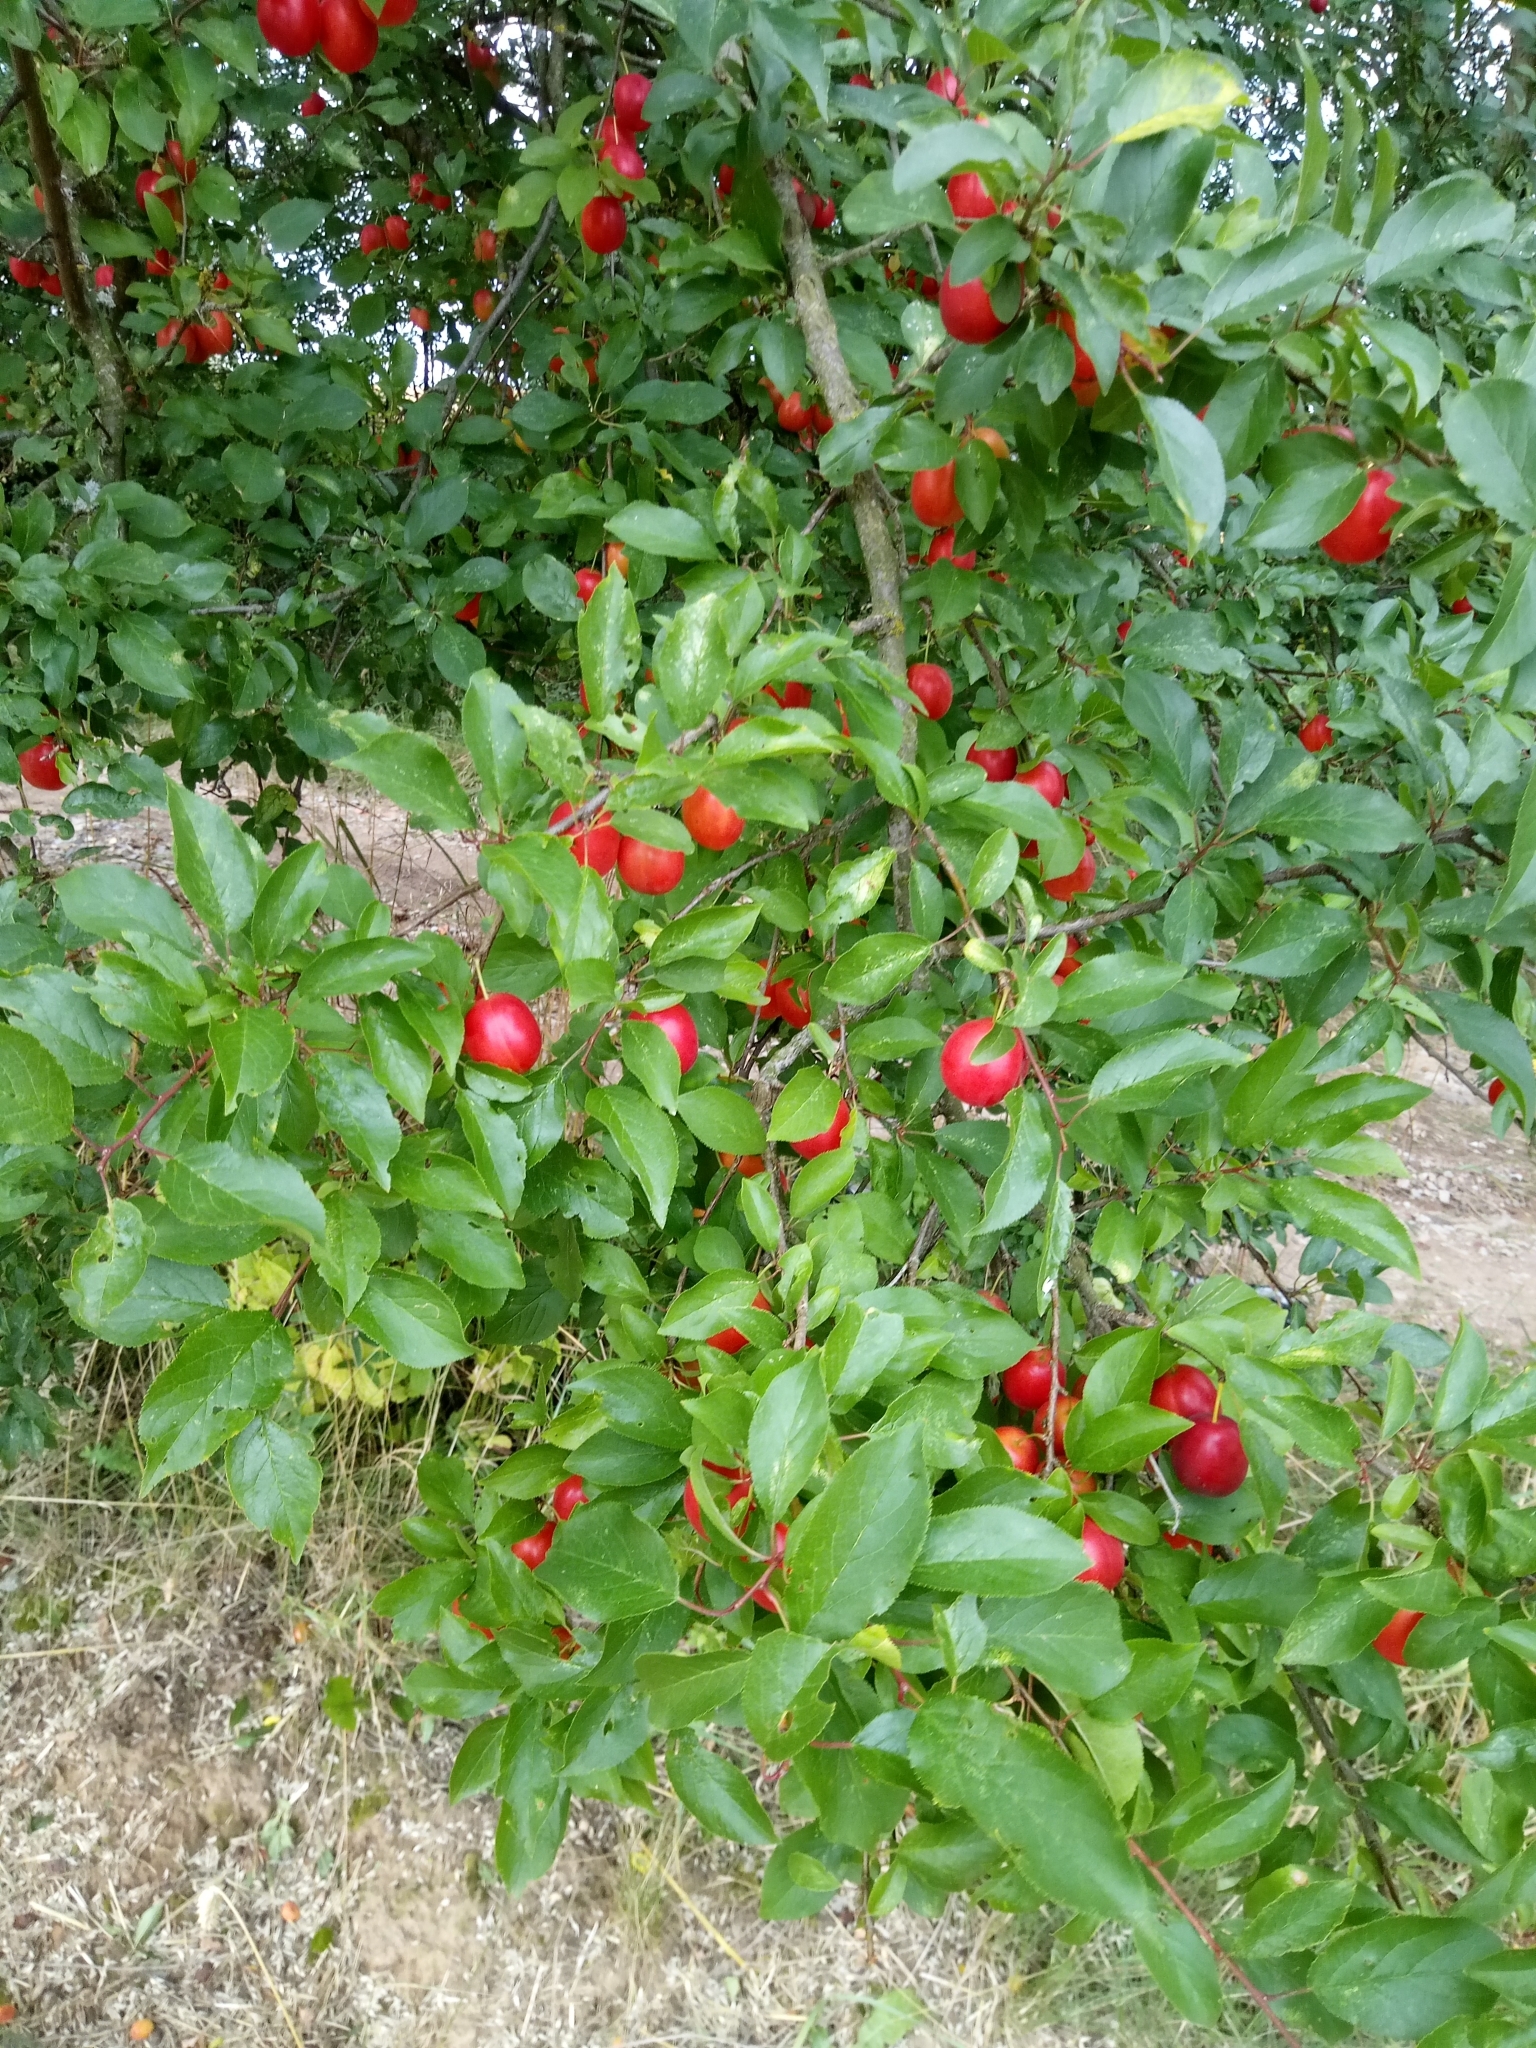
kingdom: Plantae
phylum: Tracheophyta
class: Magnoliopsida
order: Rosales
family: Rosaceae
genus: Prunus
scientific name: Prunus cerasifera
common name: Cherry plum
